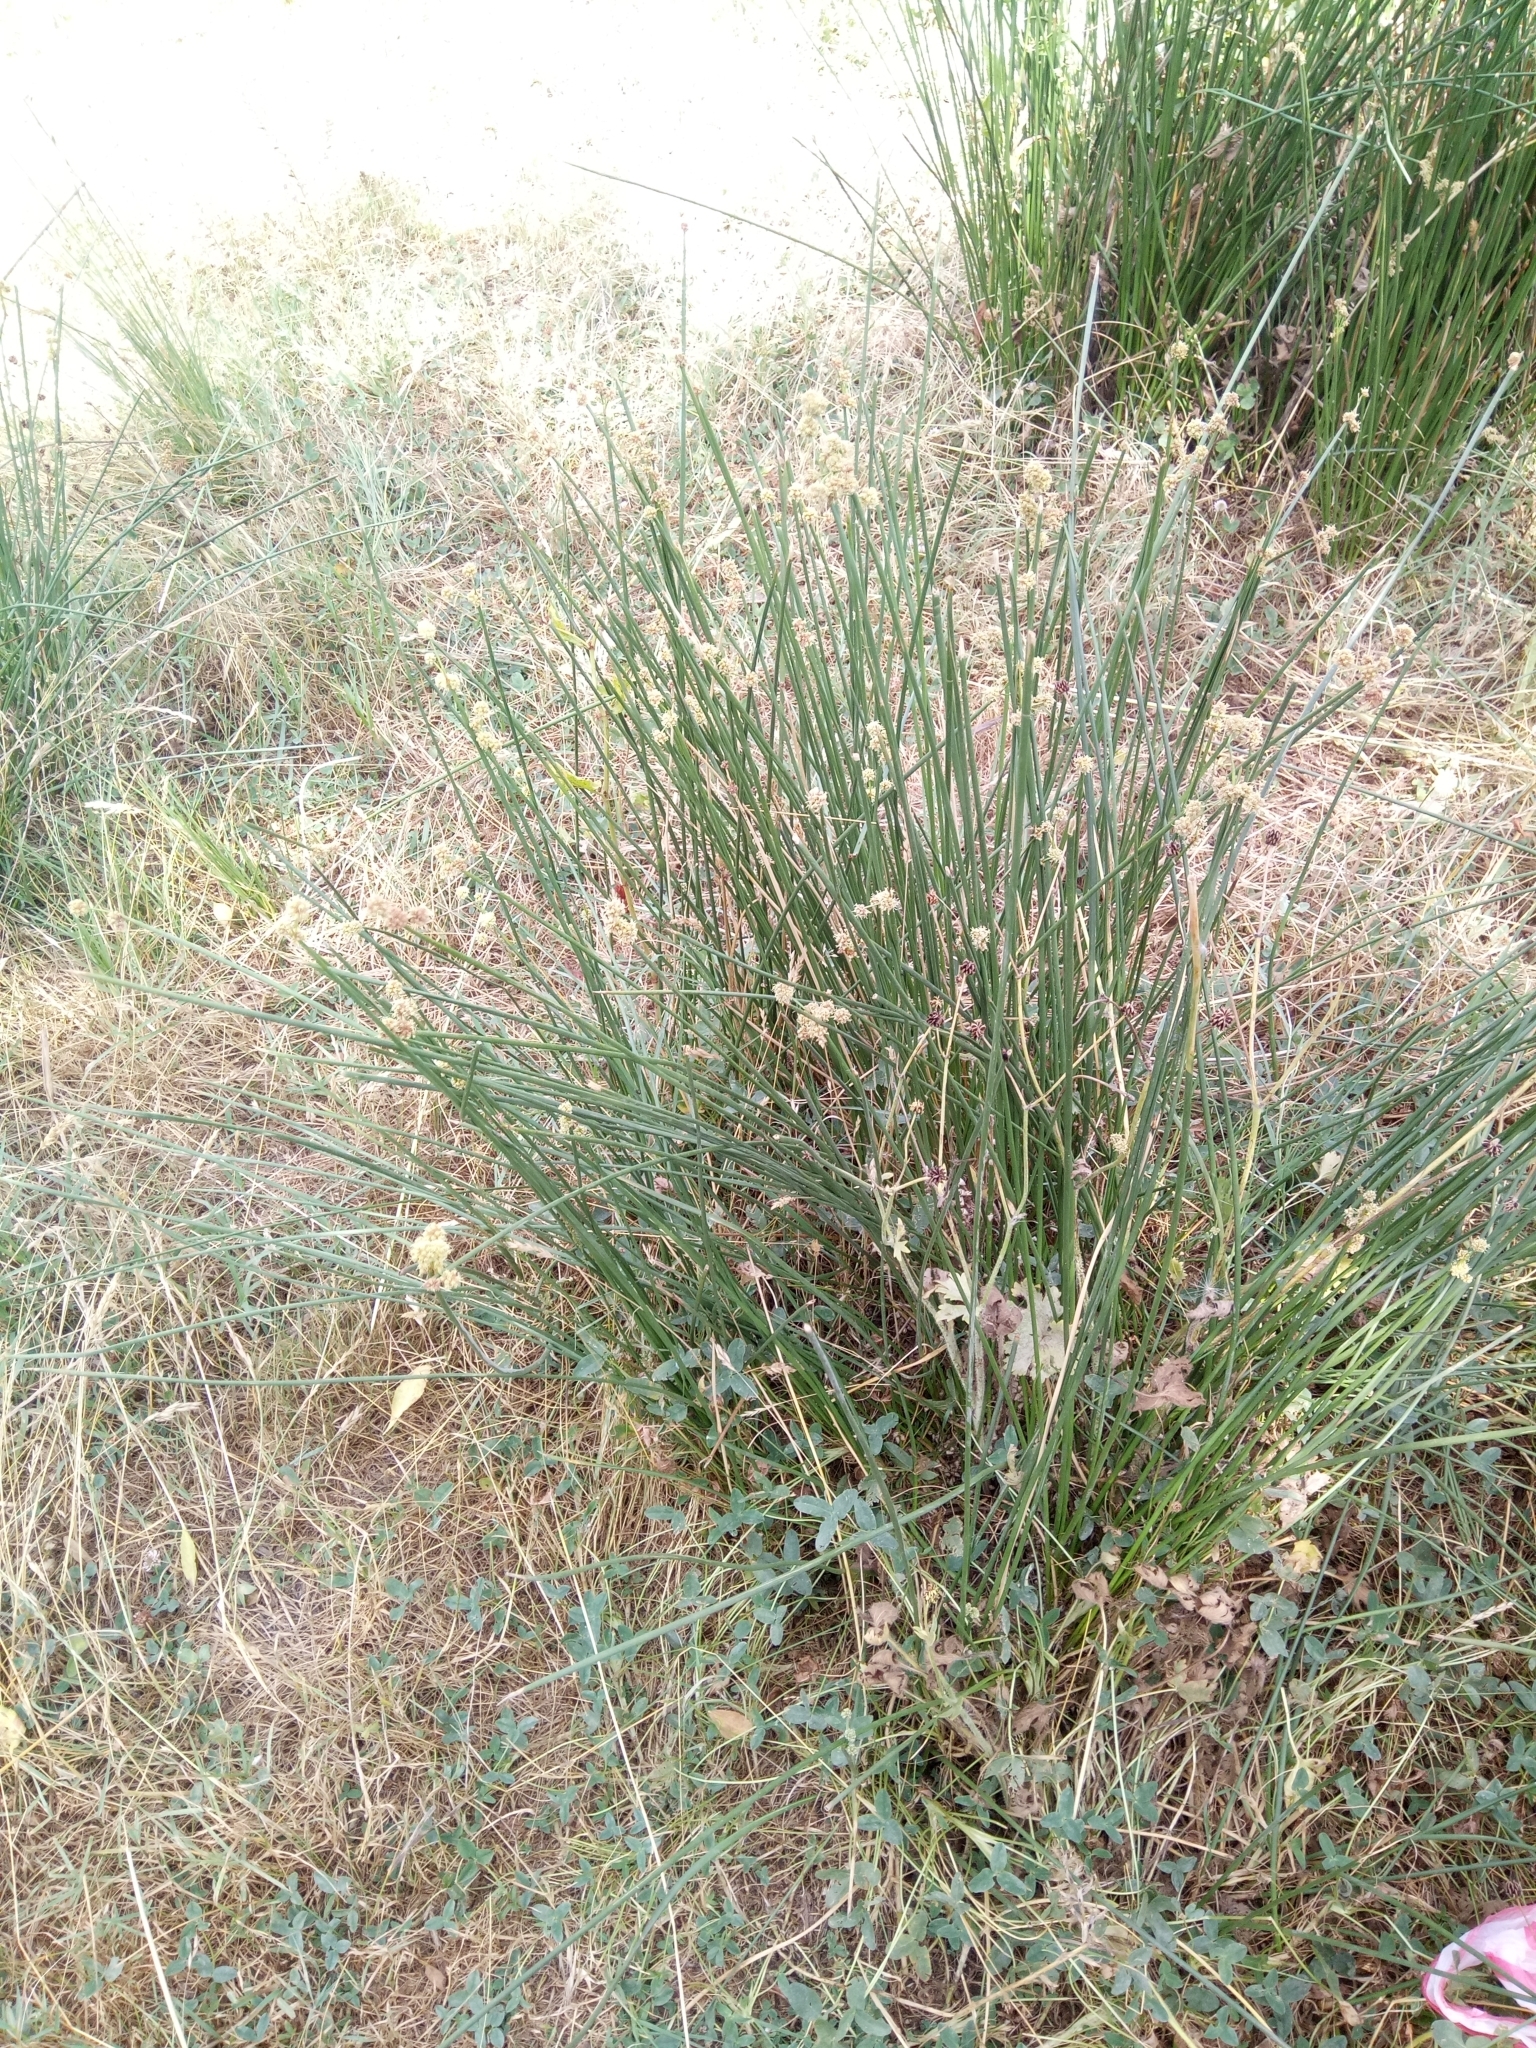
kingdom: Plantae
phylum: Tracheophyta
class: Liliopsida
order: Poales
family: Cyperaceae
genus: Scirpoides
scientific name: Scirpoides holoschoenus
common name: Round-headed club-rush
